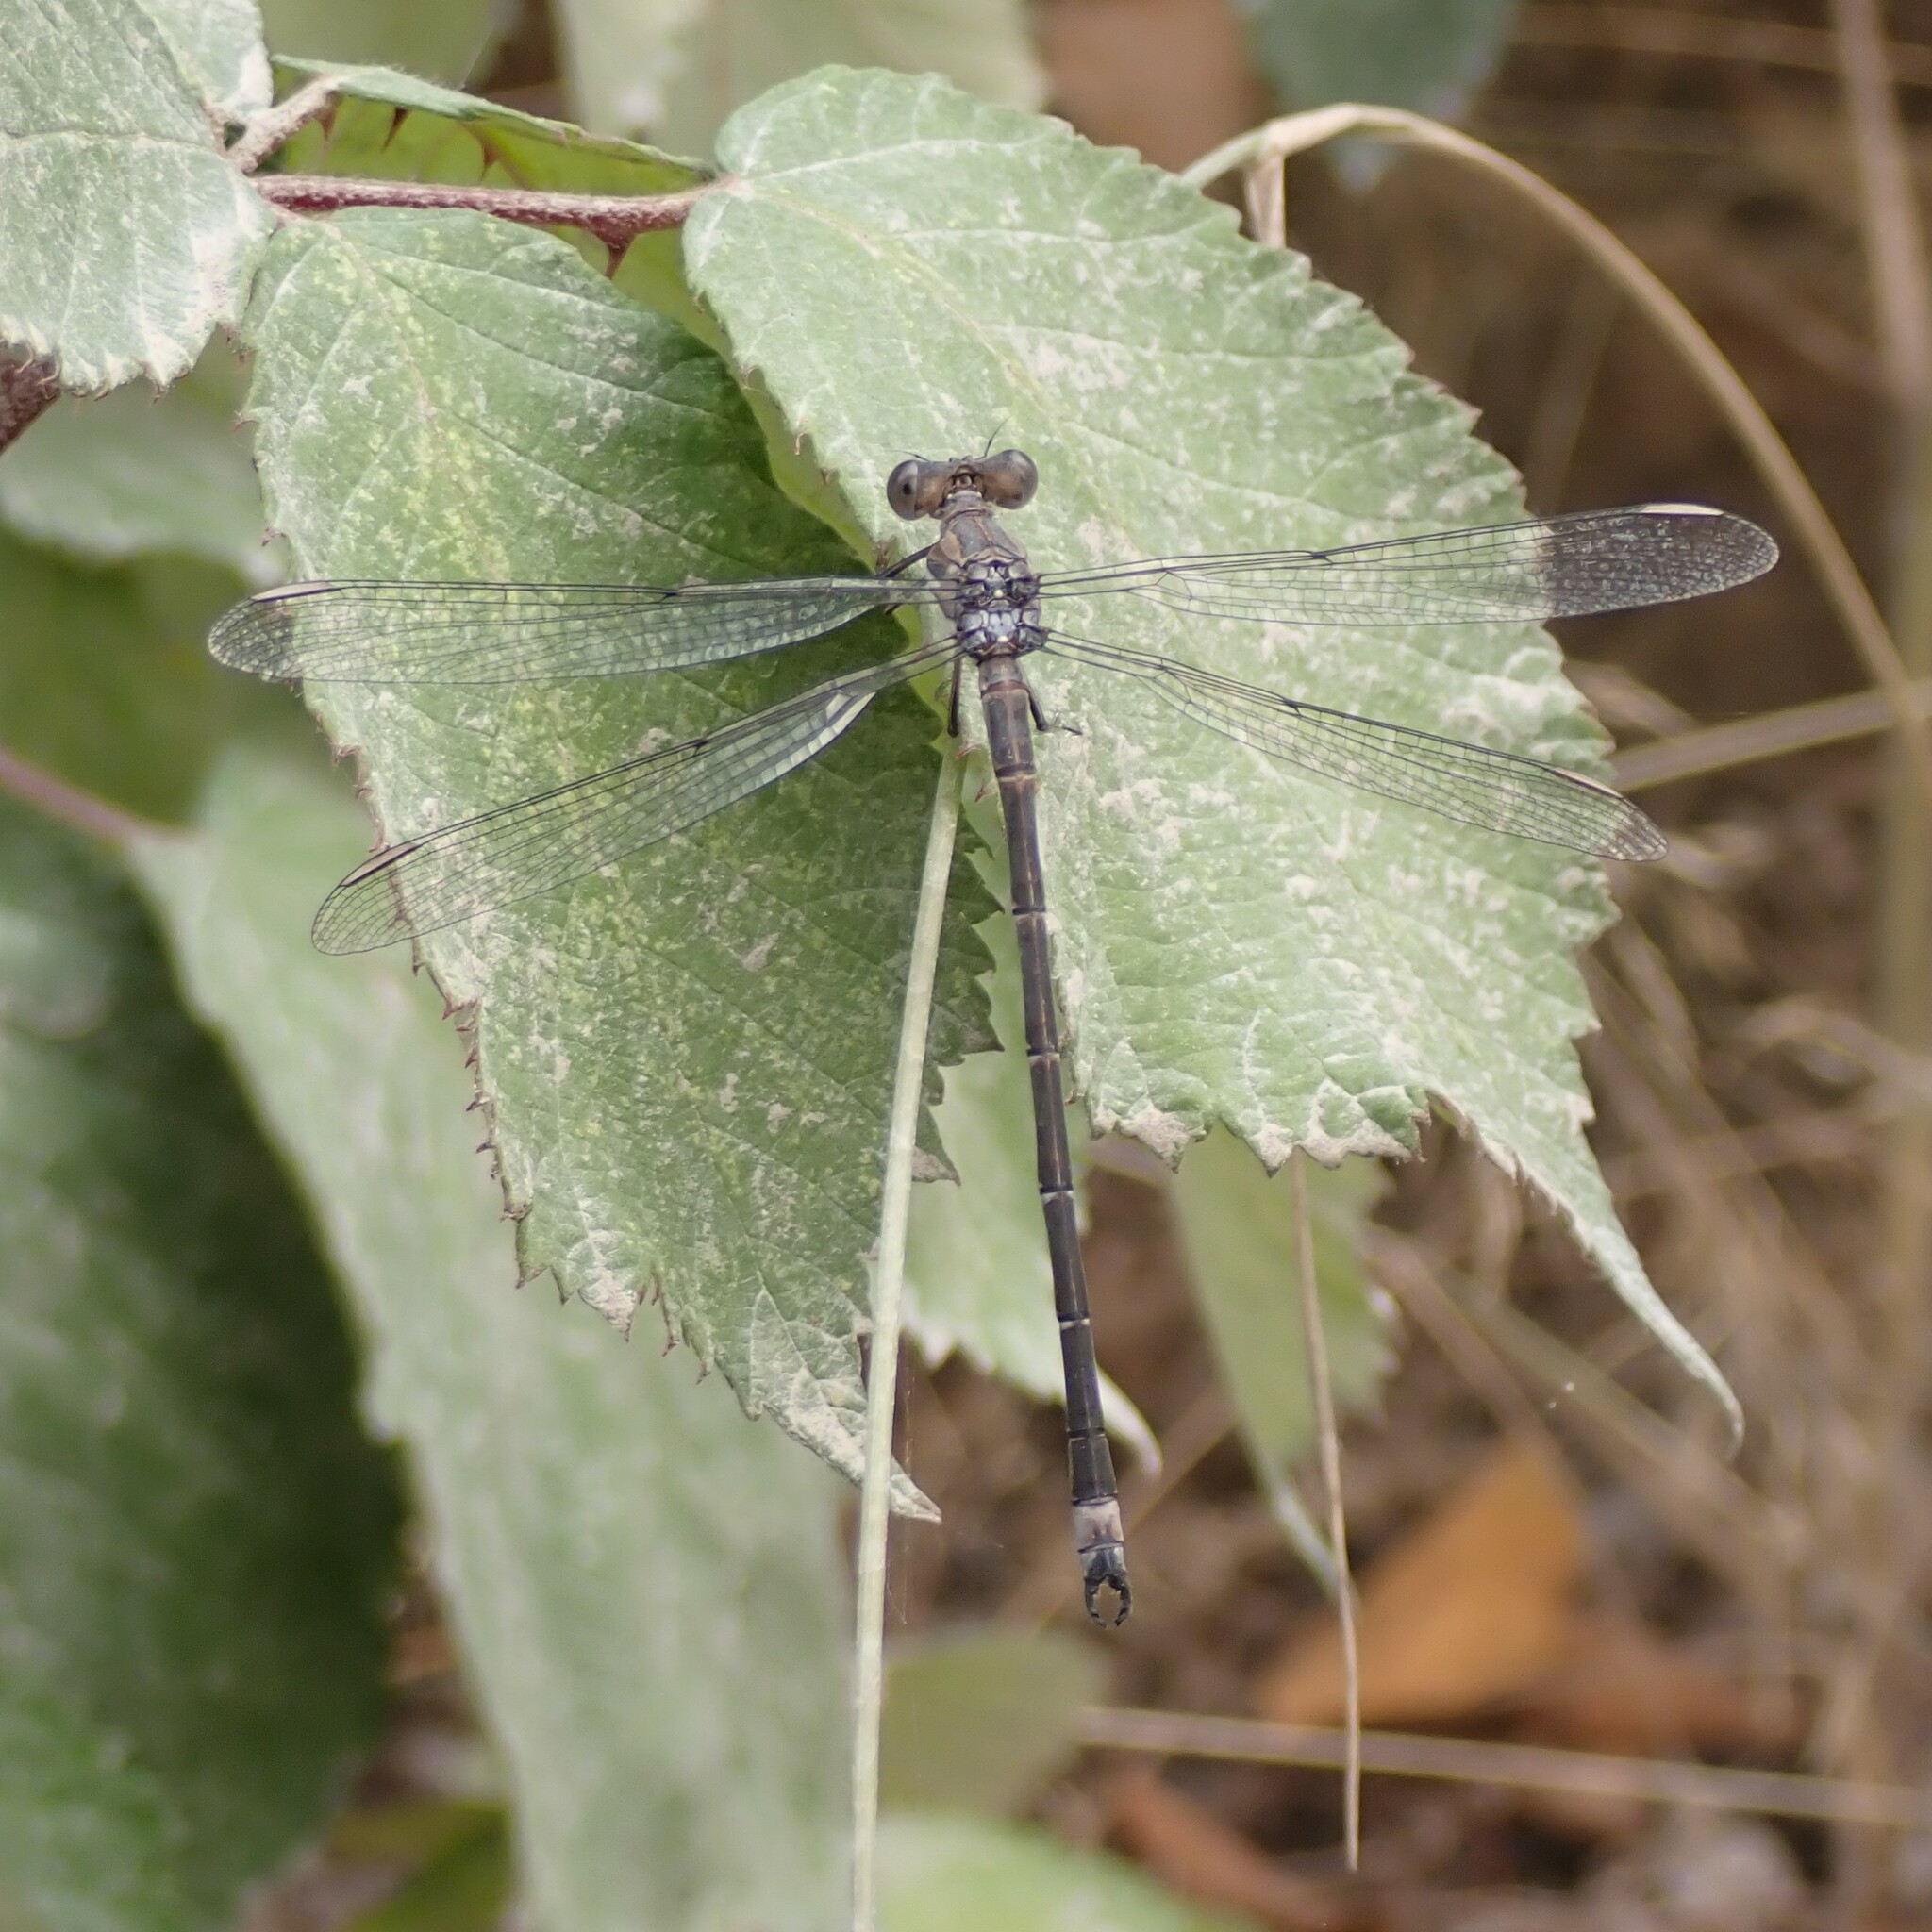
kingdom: Animalia
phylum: Arthropoda
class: Insecta
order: Odonata
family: Lestidae
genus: Archilestes
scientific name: Archilestes californicus
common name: California spreadwing
